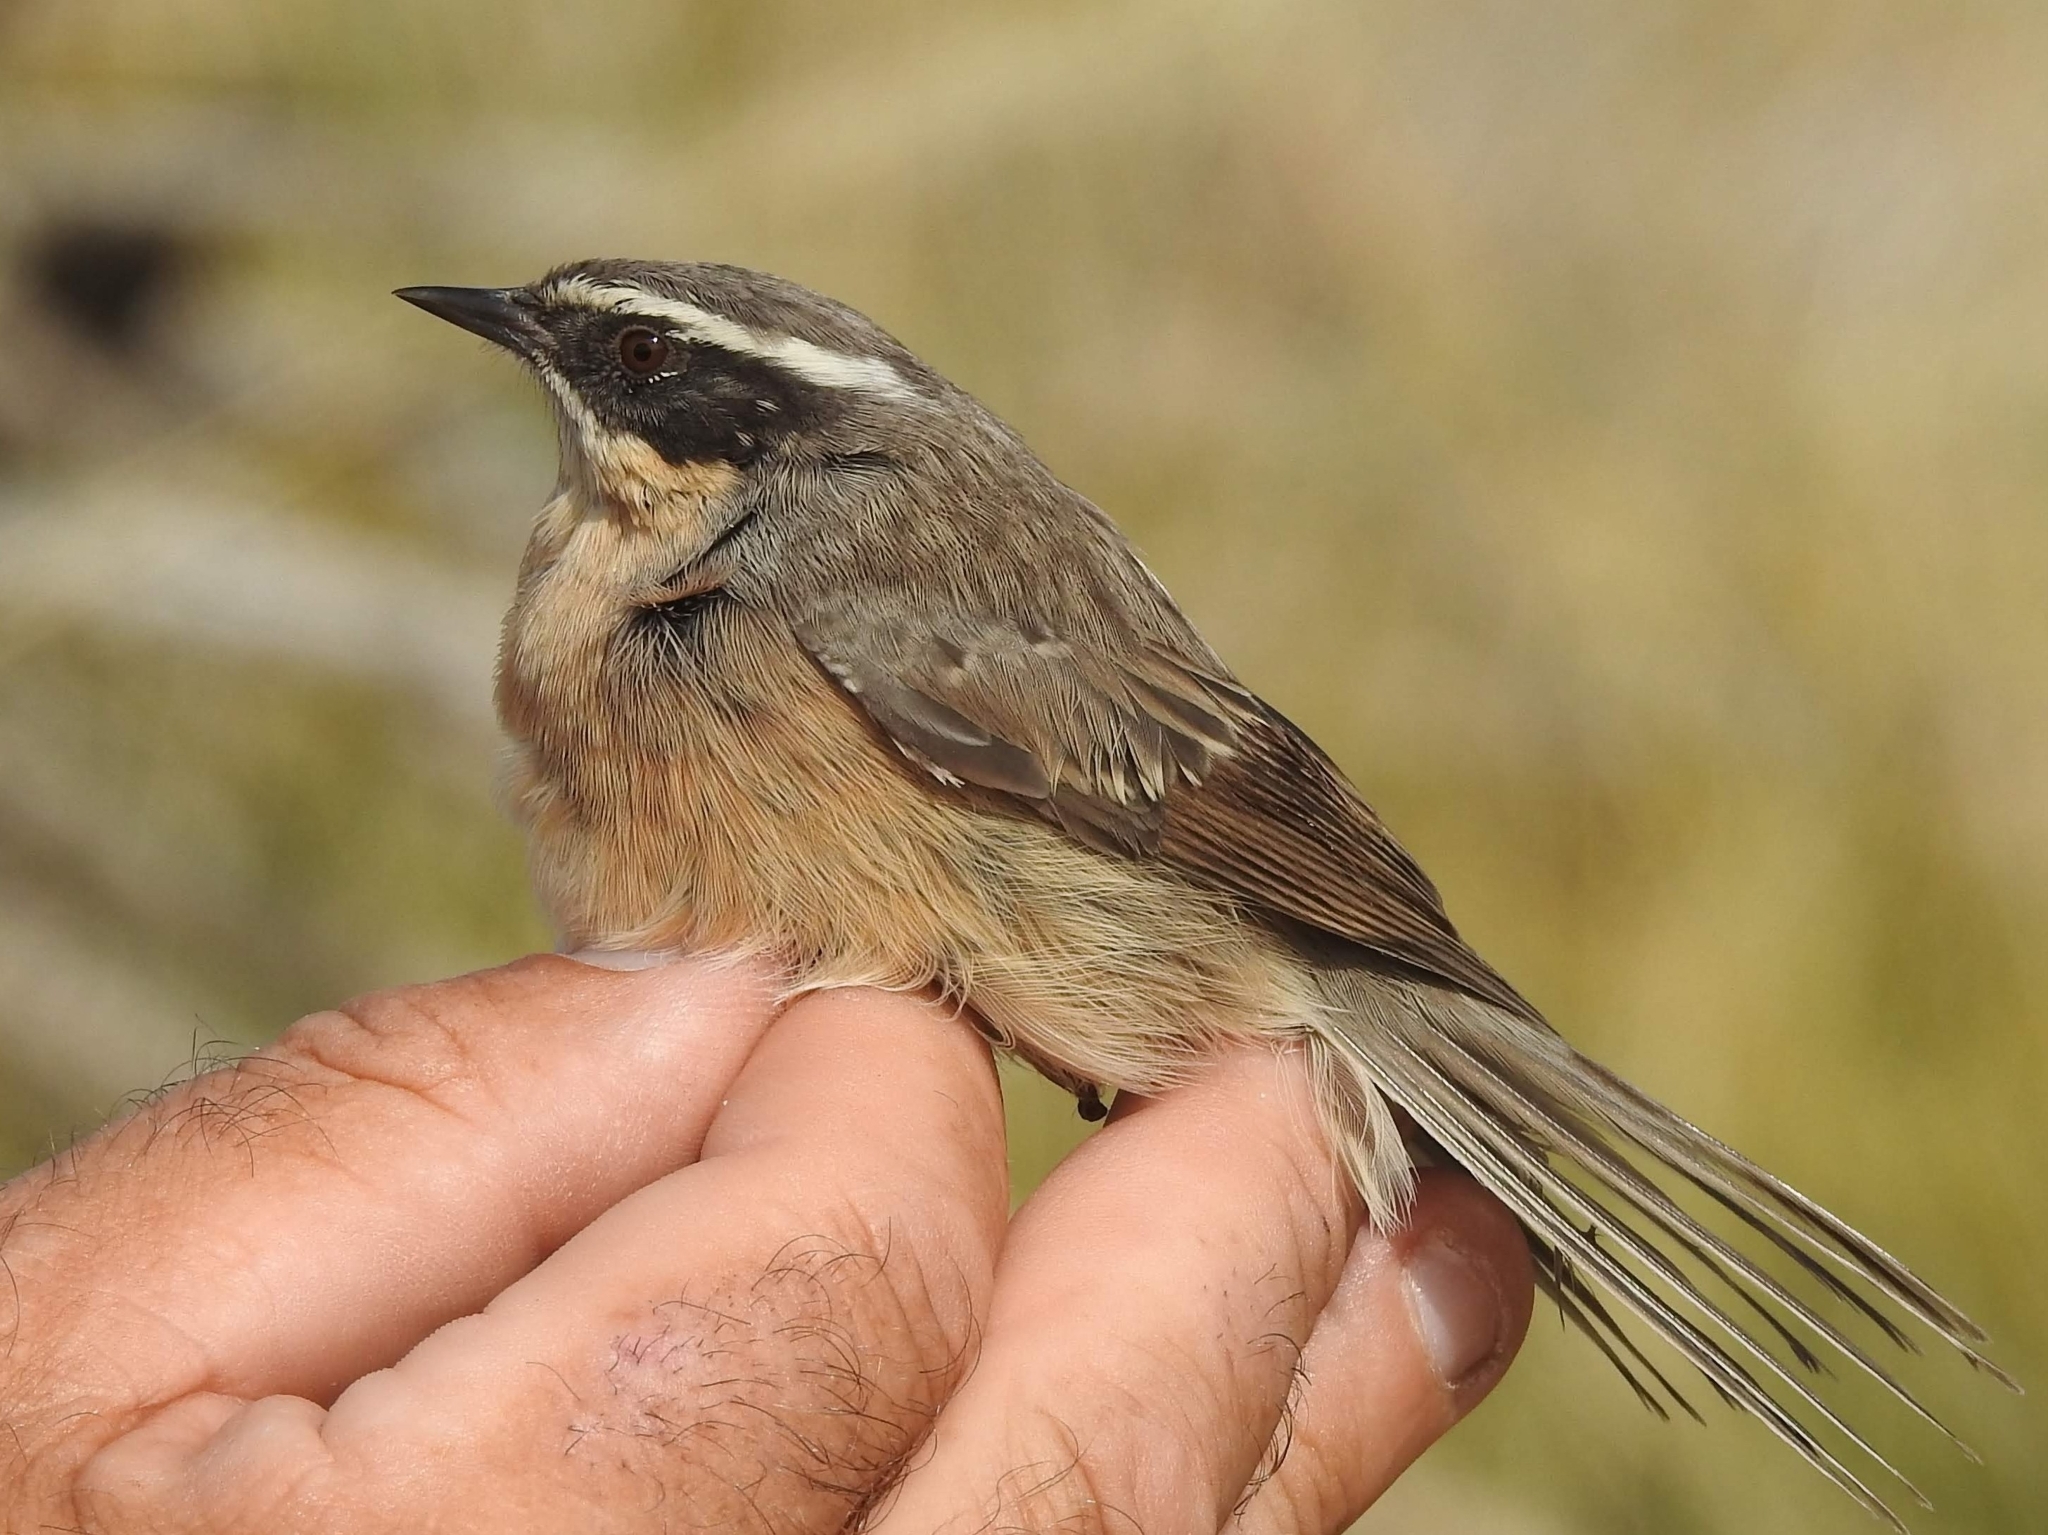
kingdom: Animalia
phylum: Chordata
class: Aves
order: Passeriformes
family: Prunellidae
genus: Prunella
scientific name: Prunella fulvescens
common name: Brown accentor
